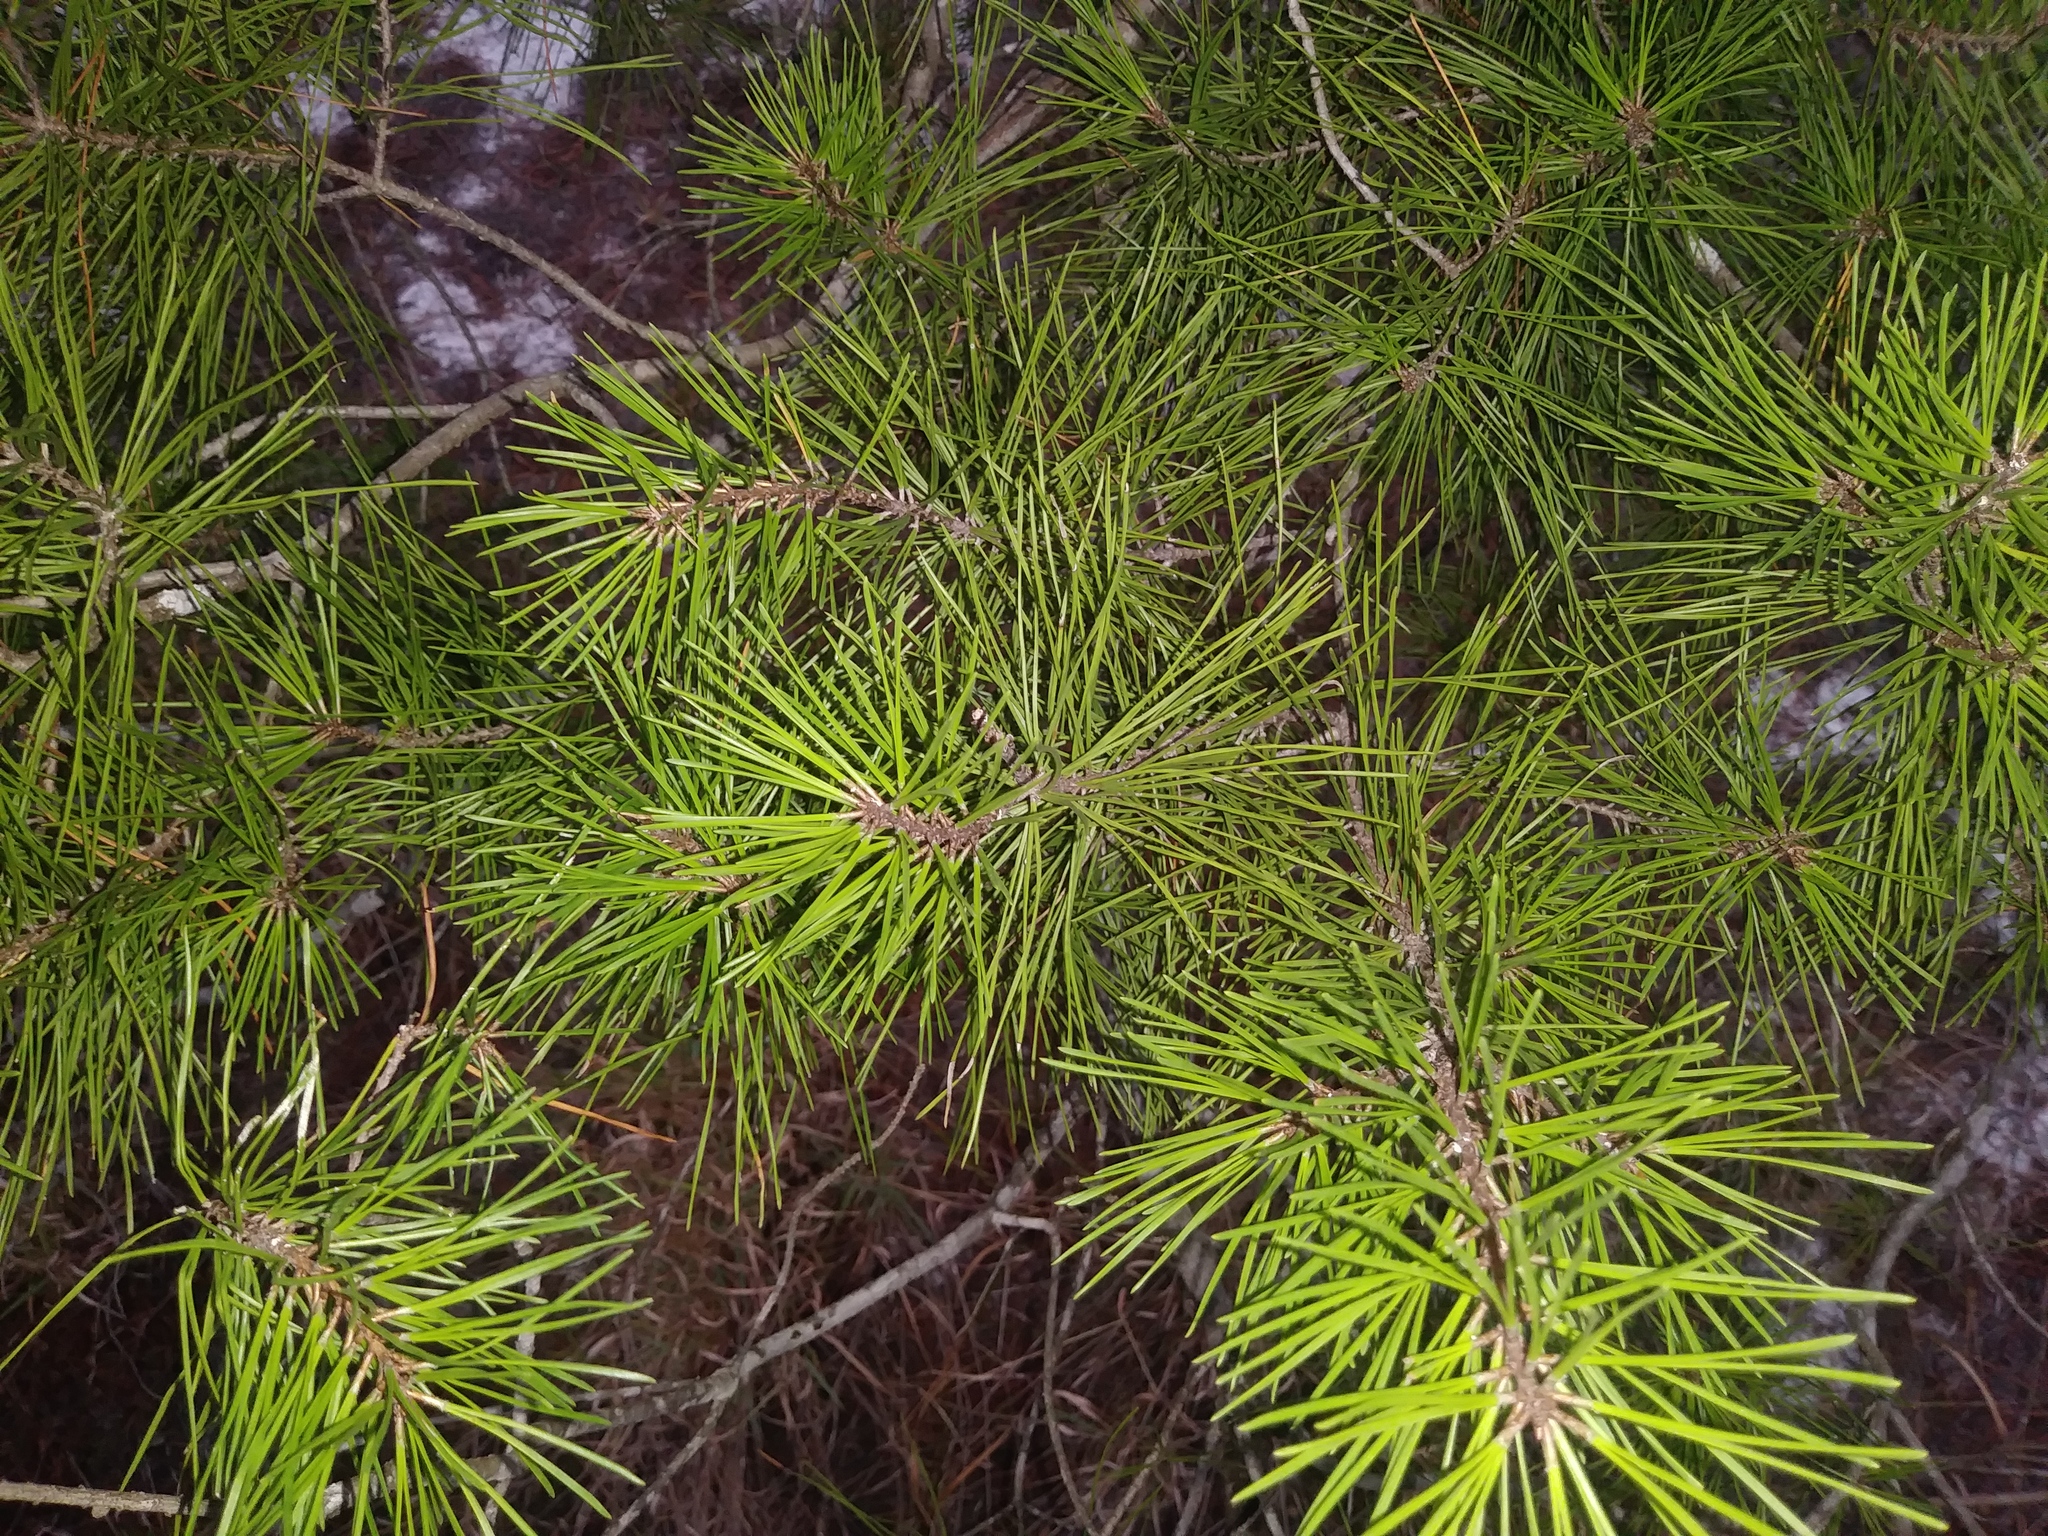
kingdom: Plantae
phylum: Tracheophyta
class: Pinopsida
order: Pinales
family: Pinaceae
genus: Pinus
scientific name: Pinus clausa
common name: Sand pine
